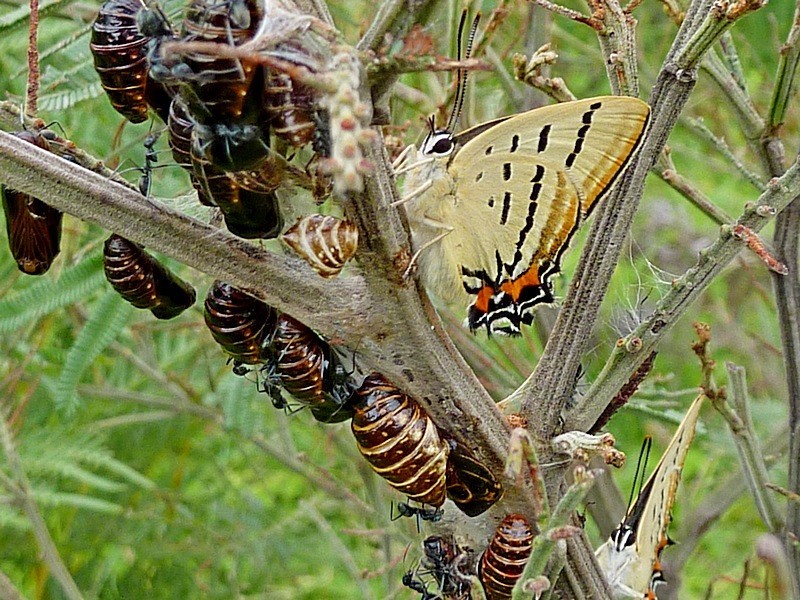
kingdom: Animalia
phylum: Arthropoda
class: Insecta
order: Lepidoptera
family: Lycaenidae
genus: Jalmenus
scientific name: Jalmenus evagoras
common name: Common imperial blue
